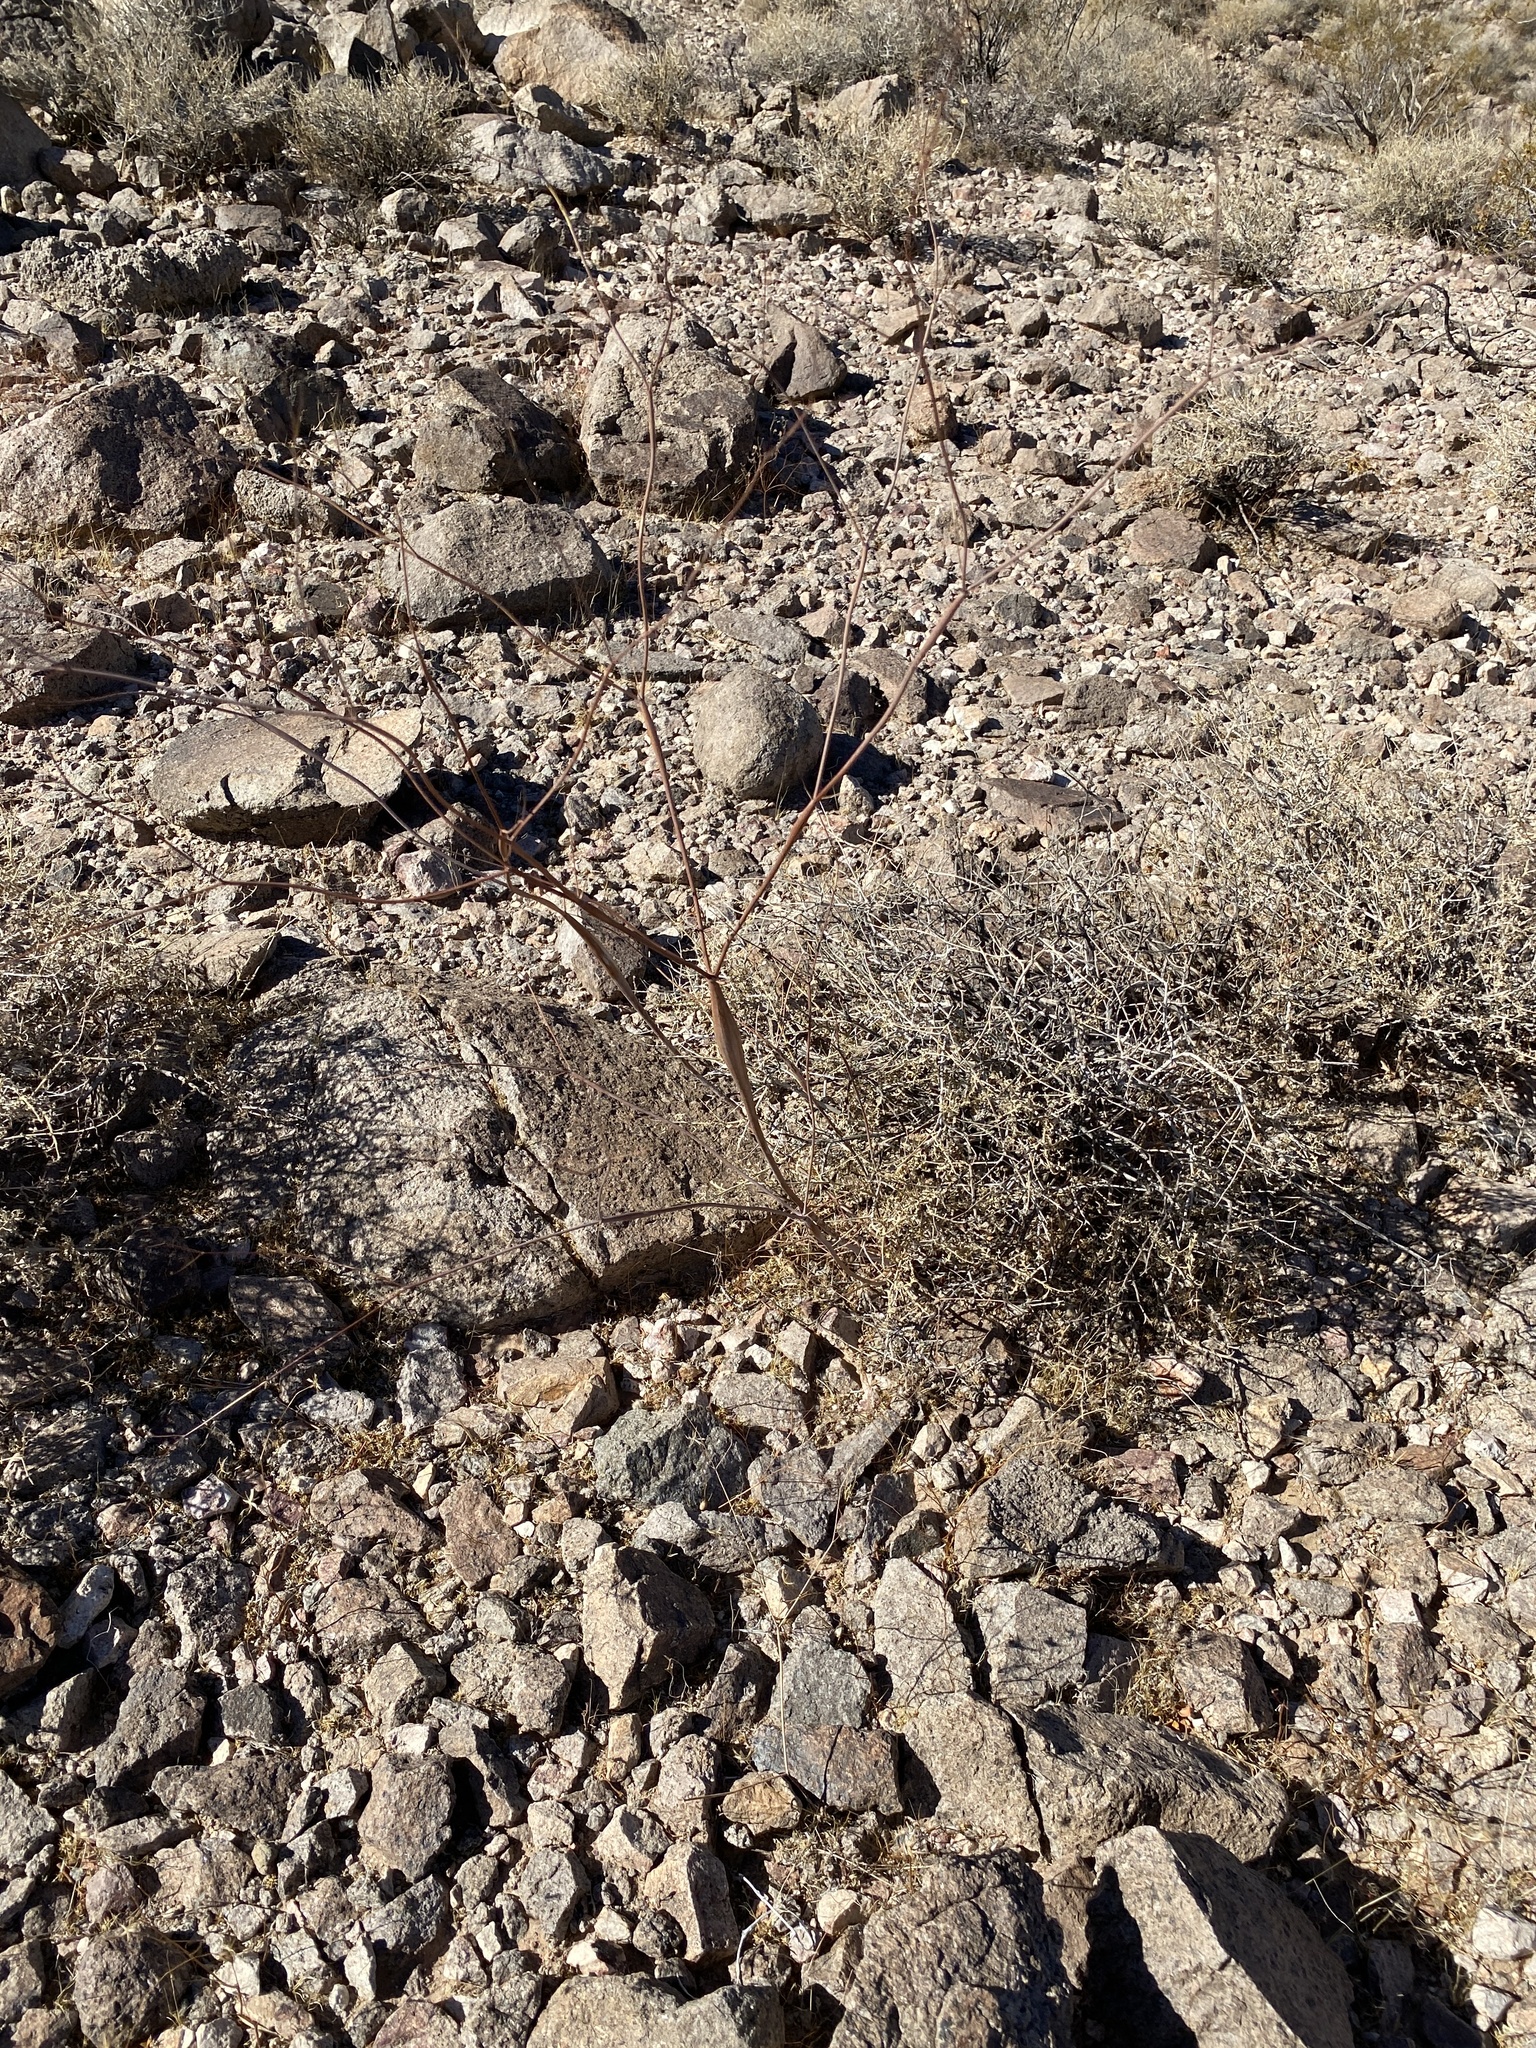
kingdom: Plantae
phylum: Tracheophyta
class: Magnoliopsida
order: Caryophyllales
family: Polygonaceae
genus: Eriogonum
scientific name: Eriogonum inflatum
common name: Desert trumpet
